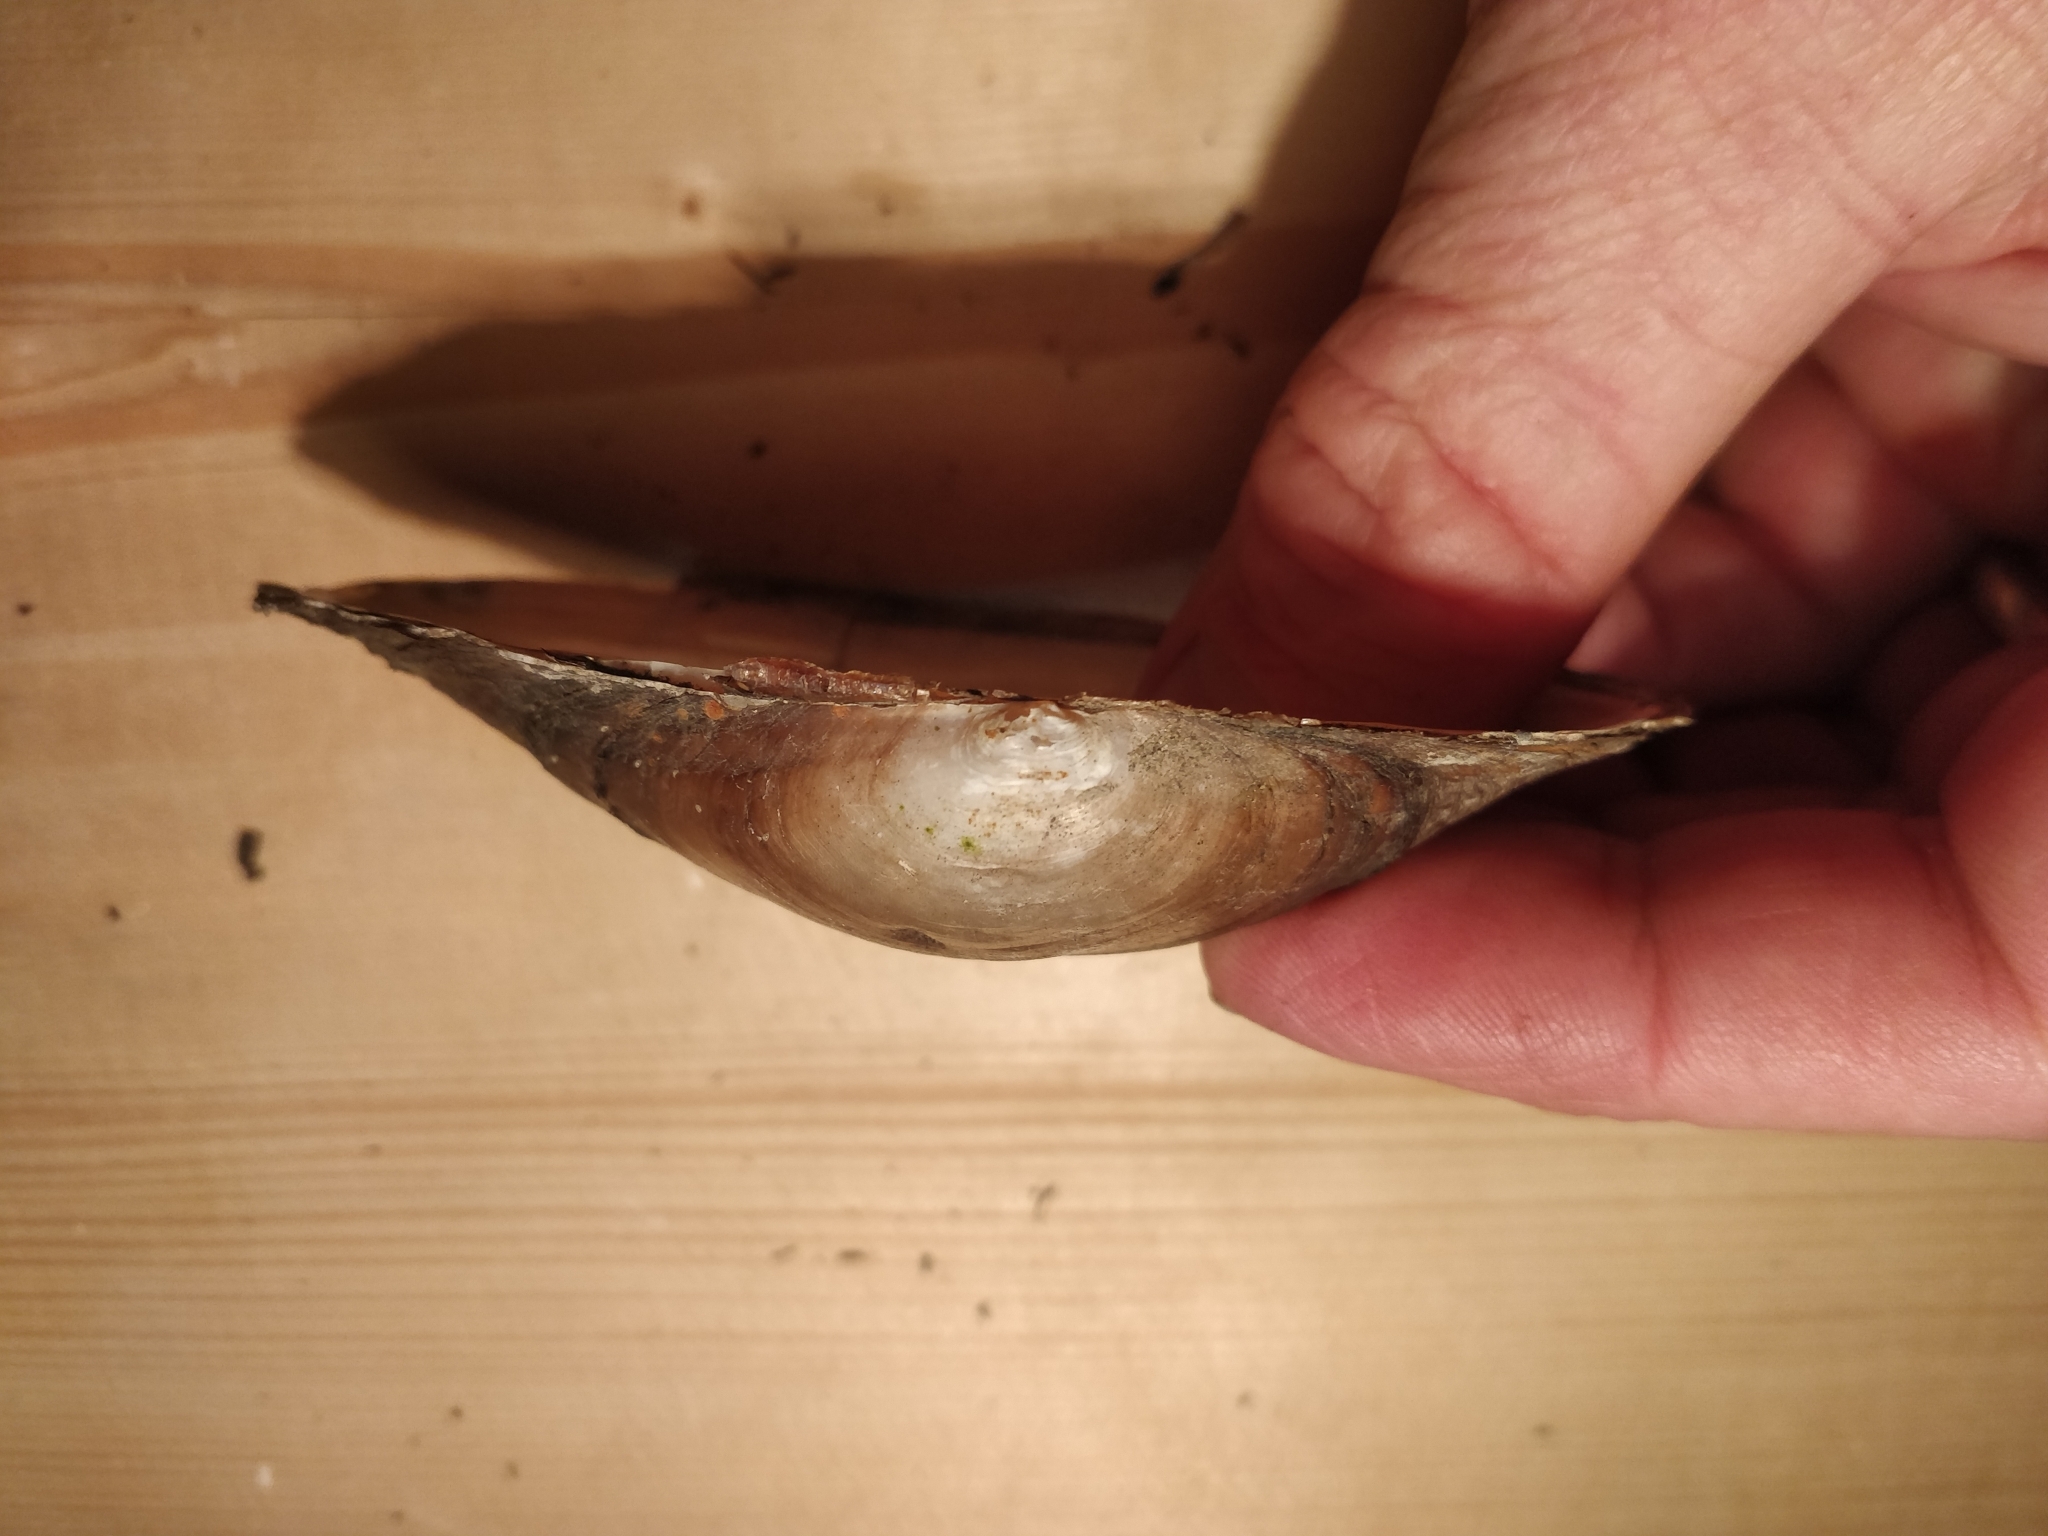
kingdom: Animalia
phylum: Mollusca
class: Bivalvia
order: Unionida
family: Unionidae
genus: Pyganodon
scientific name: Pyganodon grandis
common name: Giant floater
